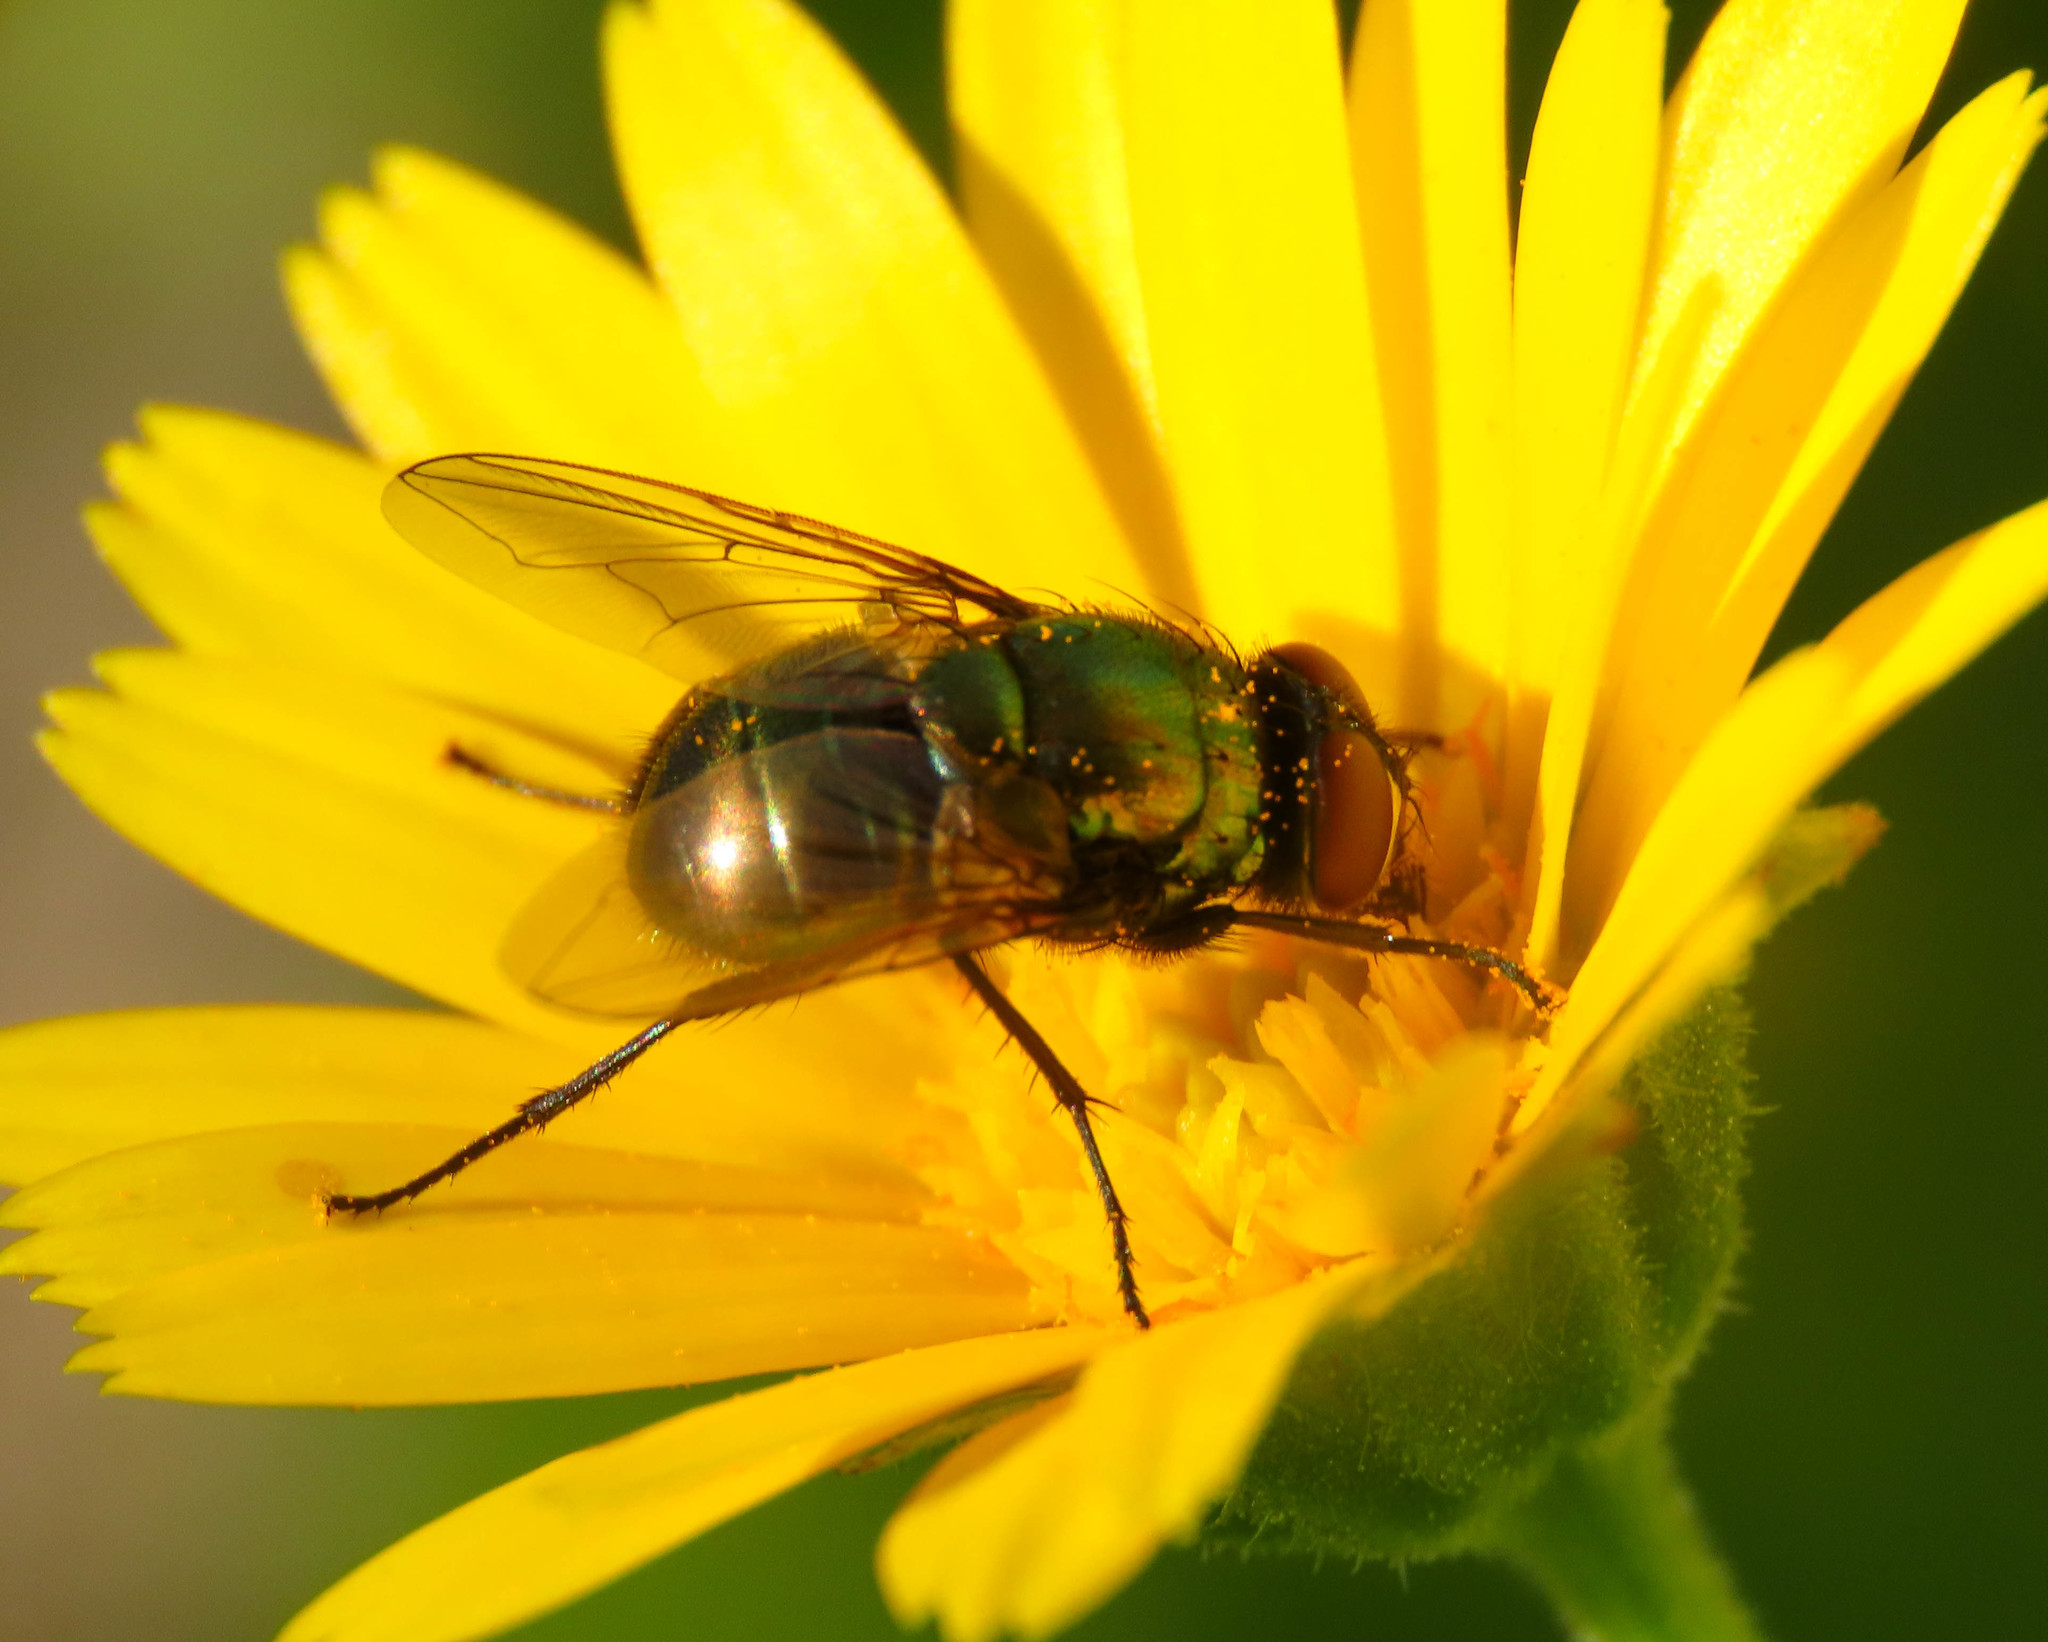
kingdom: Animalia
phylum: Arthropoda
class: Insecta
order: Diptera
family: Muscidae
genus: Neomyia
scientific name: Neomyia cornicina
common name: House fly
